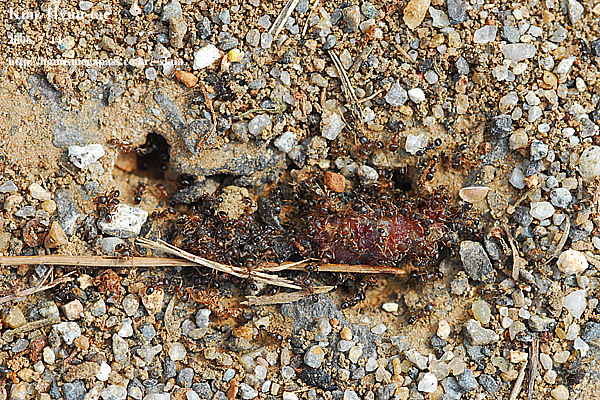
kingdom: Animalia
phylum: Arthropoda
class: Insecta
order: Hymenoptera
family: Formicidae
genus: Tetramorium
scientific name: Tetramorium tsushimae
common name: Ant
